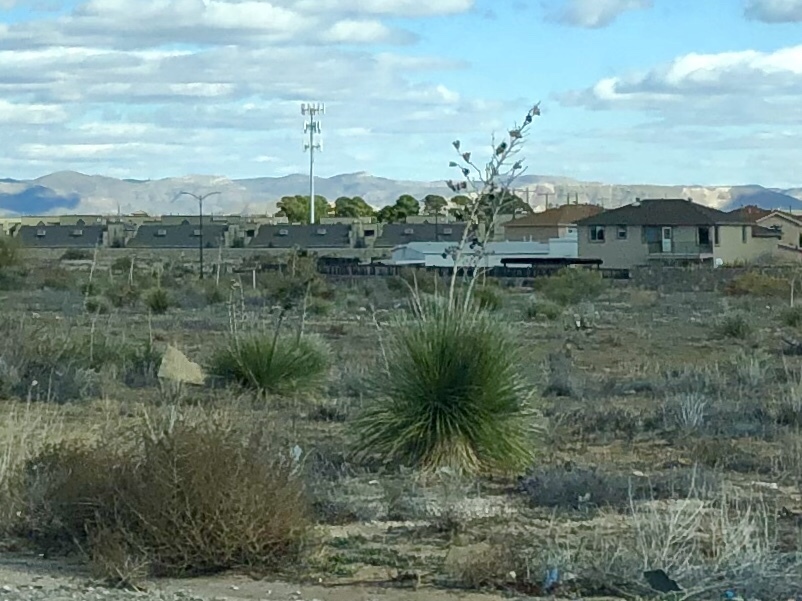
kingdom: Plantae
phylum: Tracheophyta
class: Liliopsida
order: Asparagales
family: Asparagaceae
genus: Yucca
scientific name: Yucca elata
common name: Palmella
